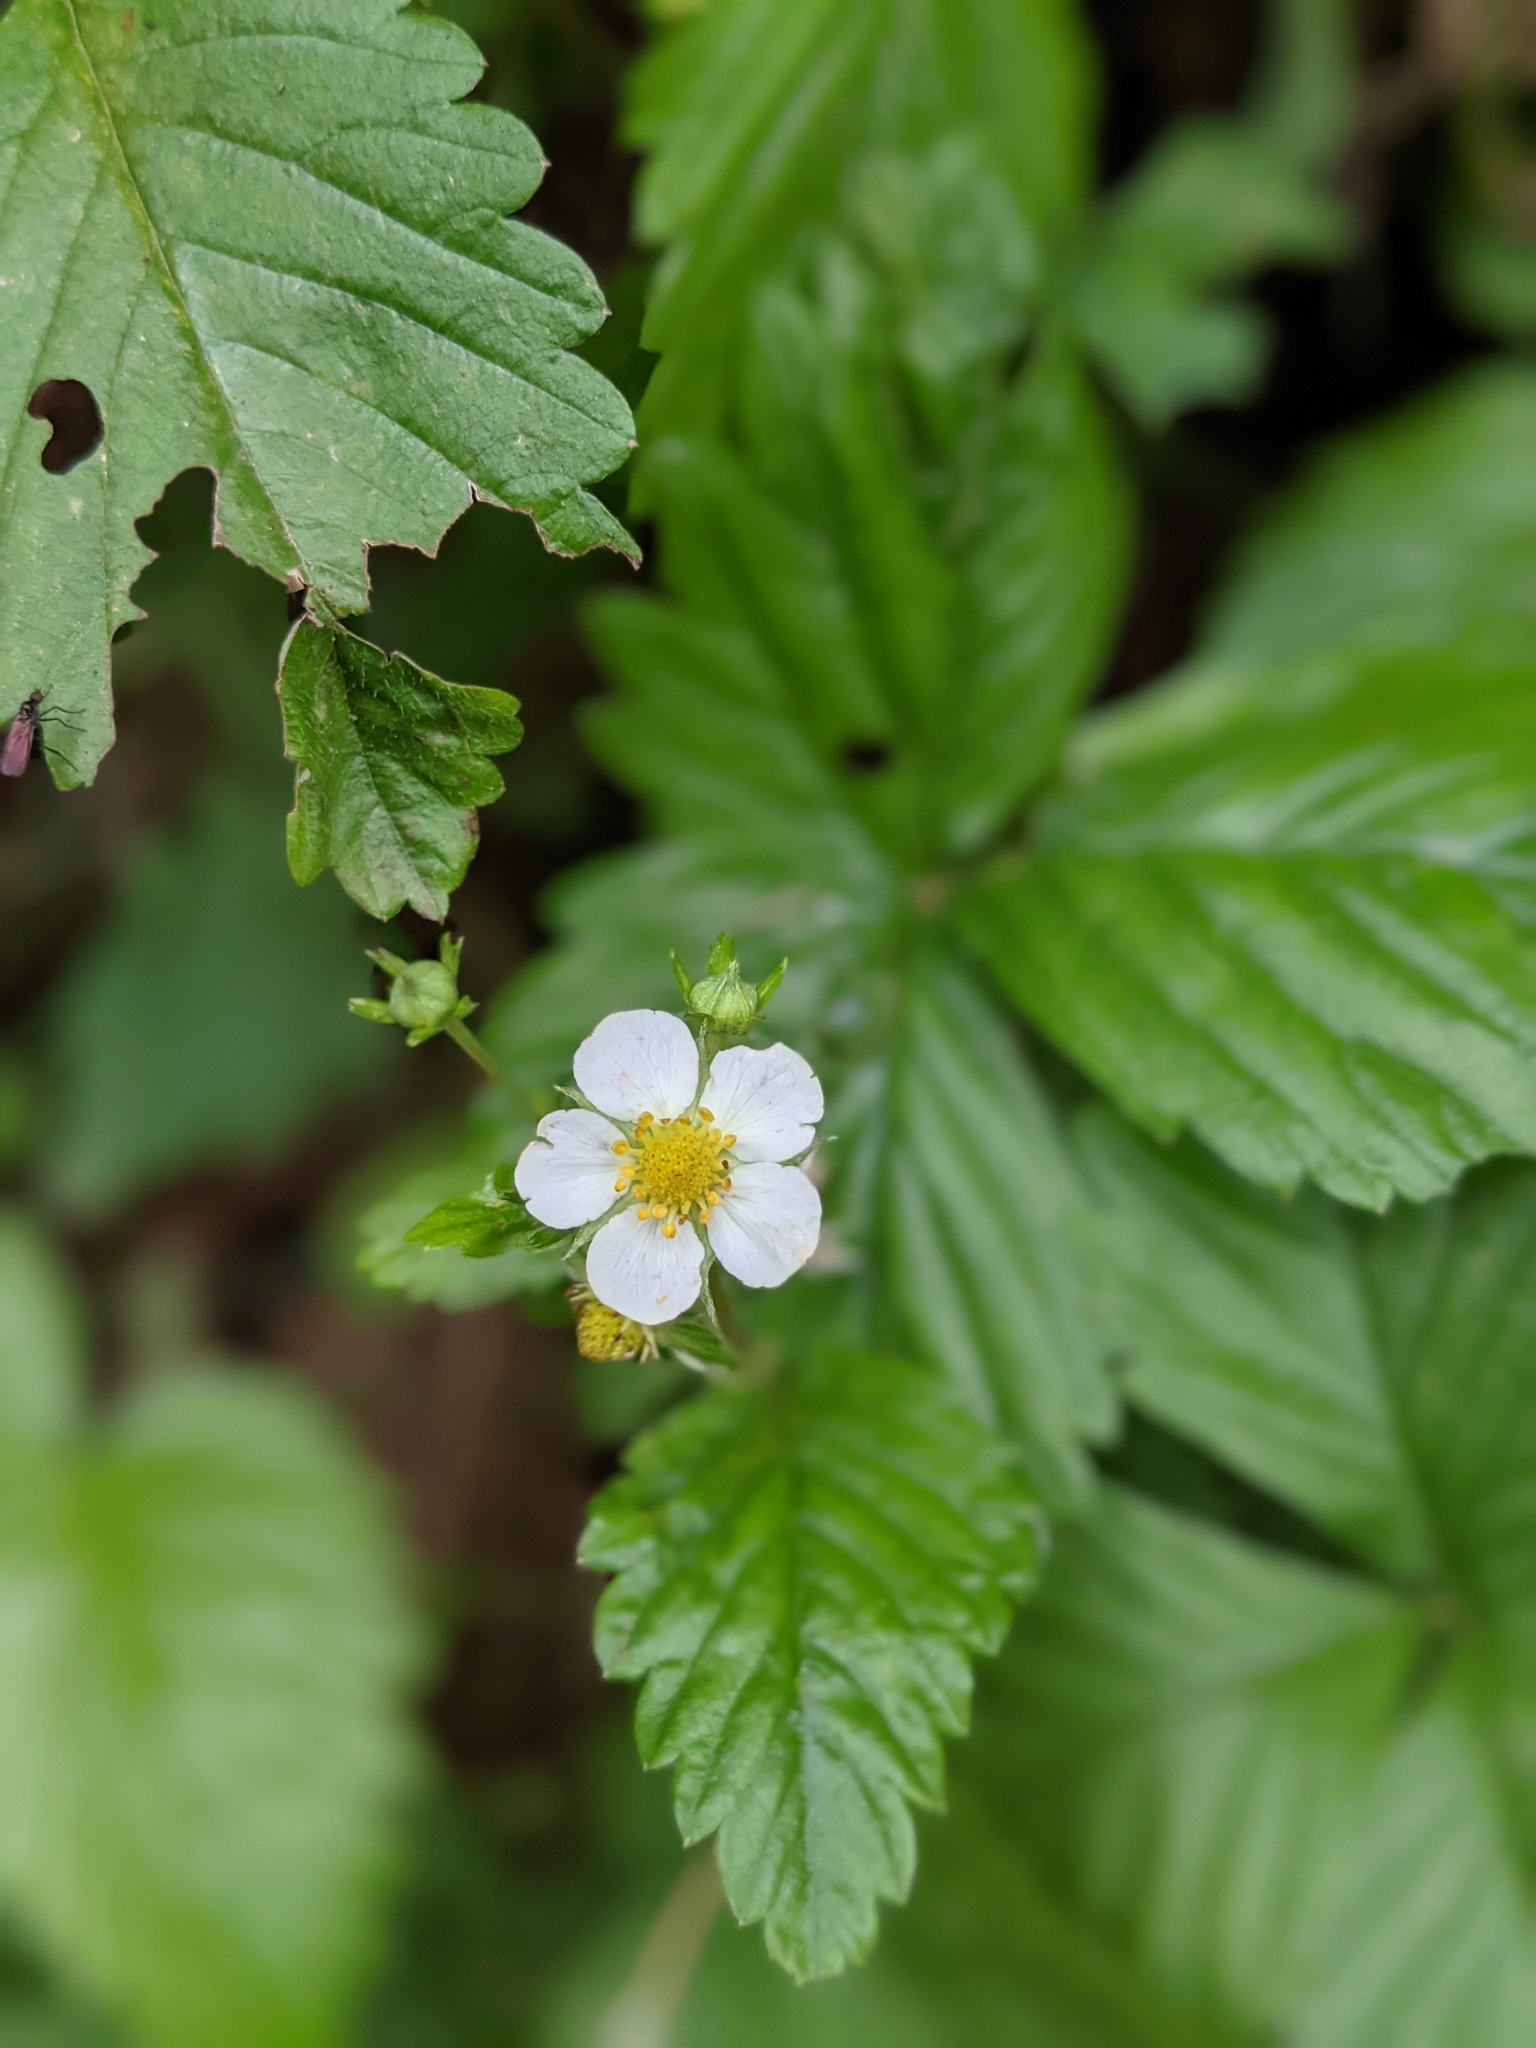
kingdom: Plantae
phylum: Tracheophyta
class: Magnoliopsida
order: Rosales
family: Rosaceae
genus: Fragaria
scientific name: Fragaria vesca
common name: Wild strawberry
